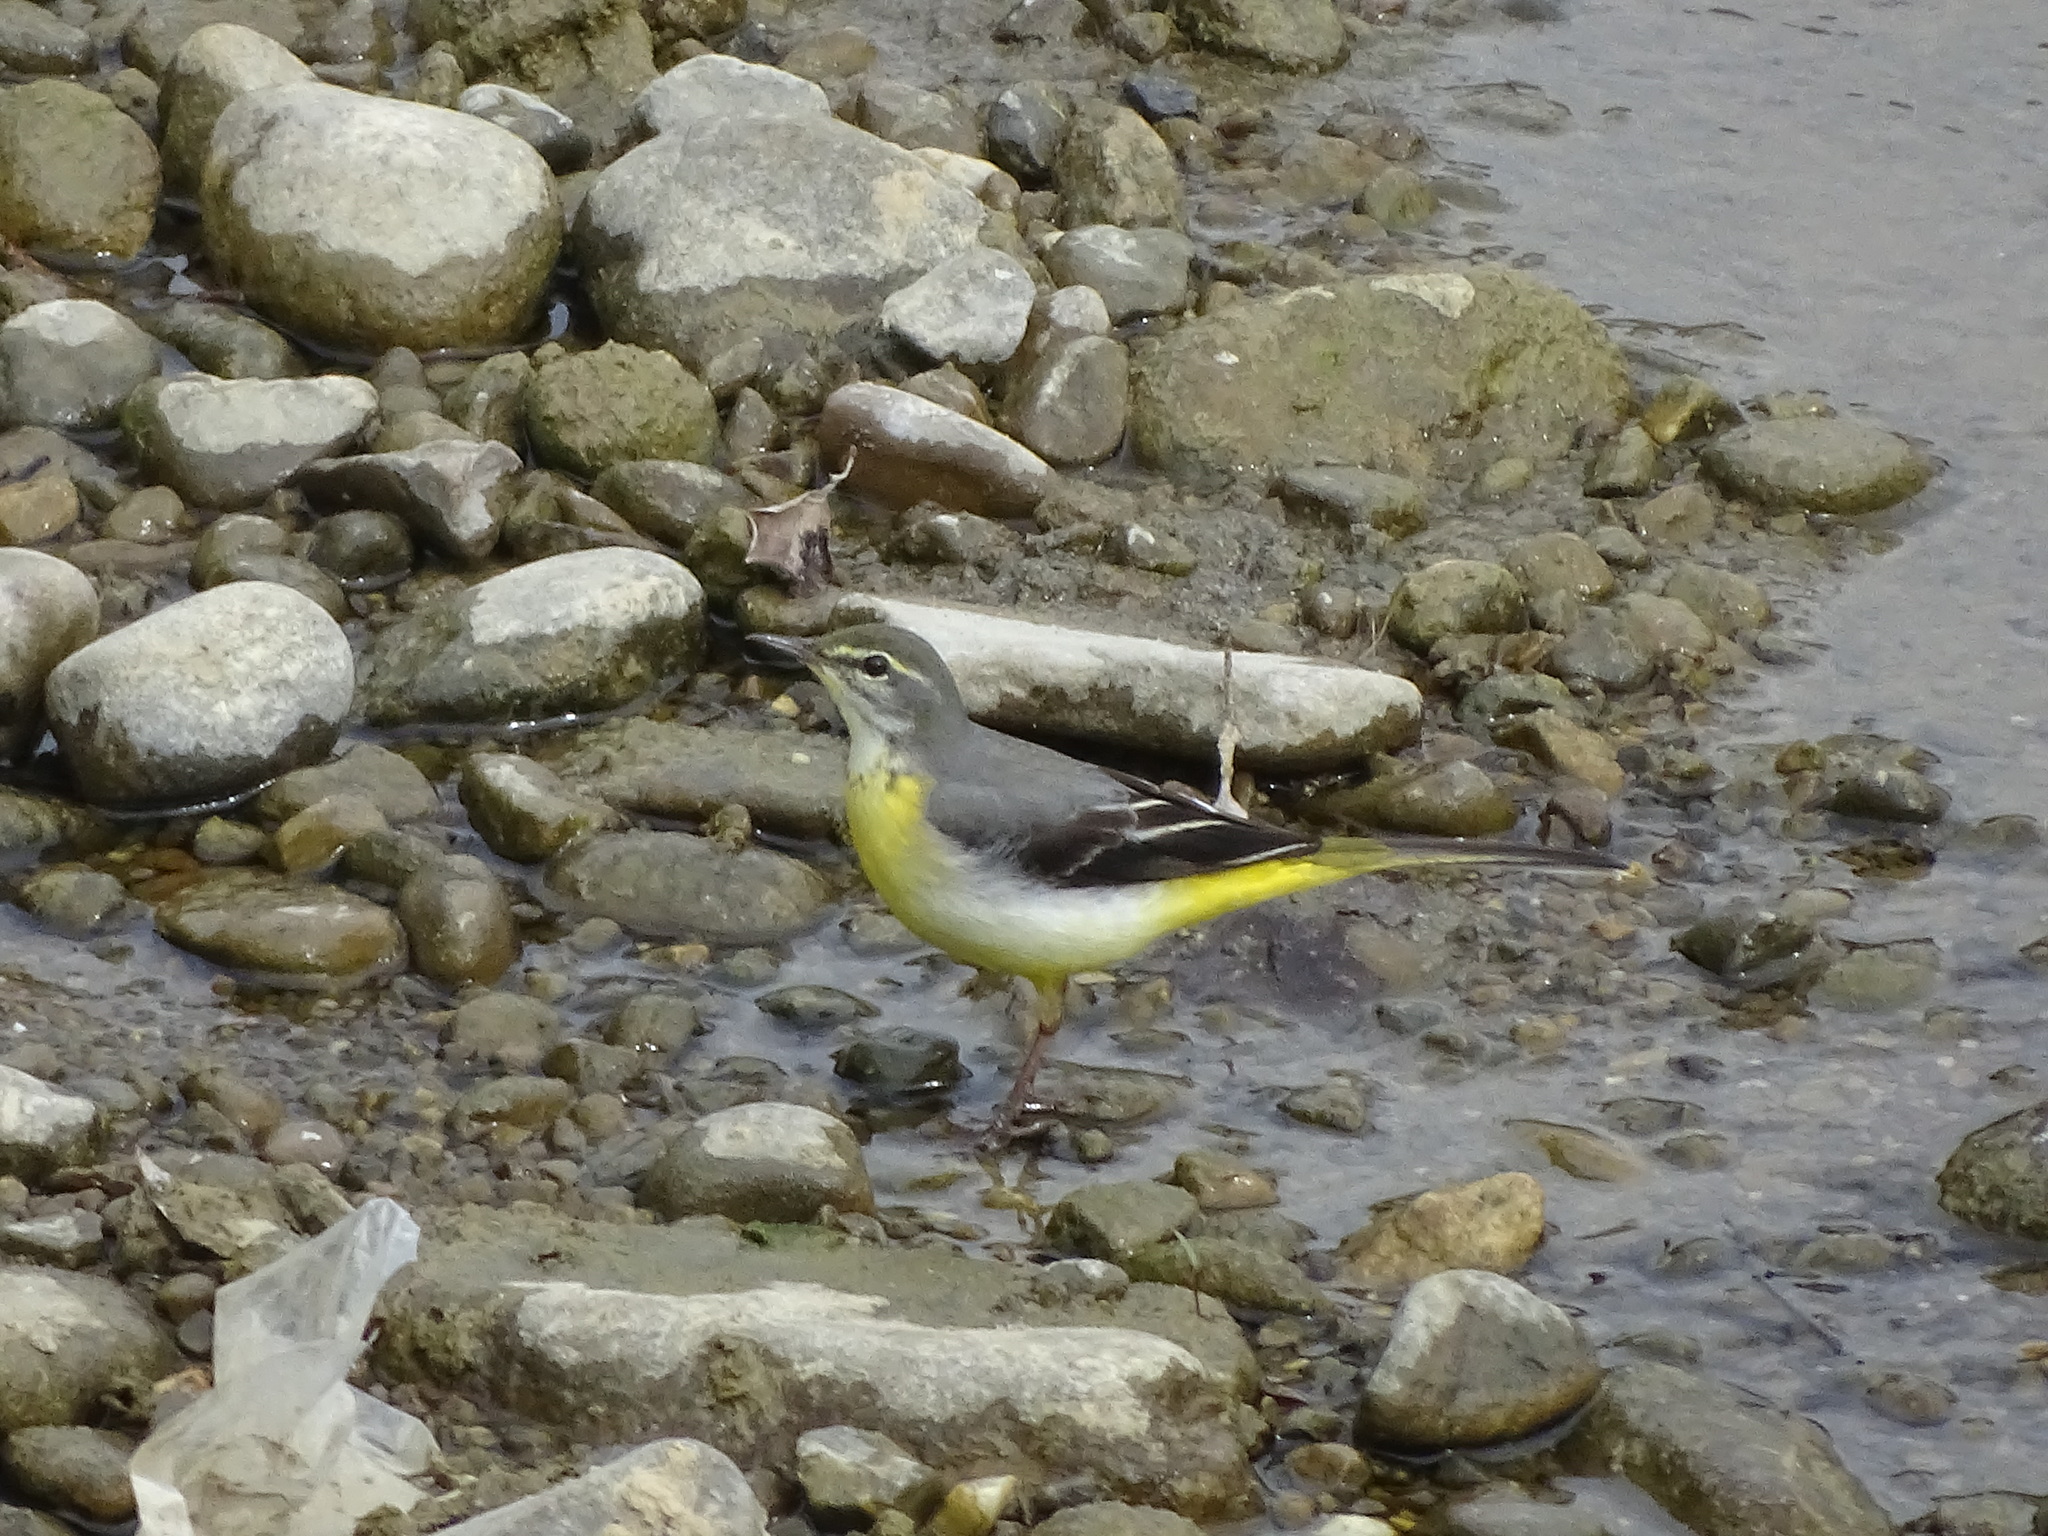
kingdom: Animalia
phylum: Chordata
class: Aves
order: Passeriformes
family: Motacillidae
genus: Motacilla
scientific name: Motacilla cinerea
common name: Grey wagtail
